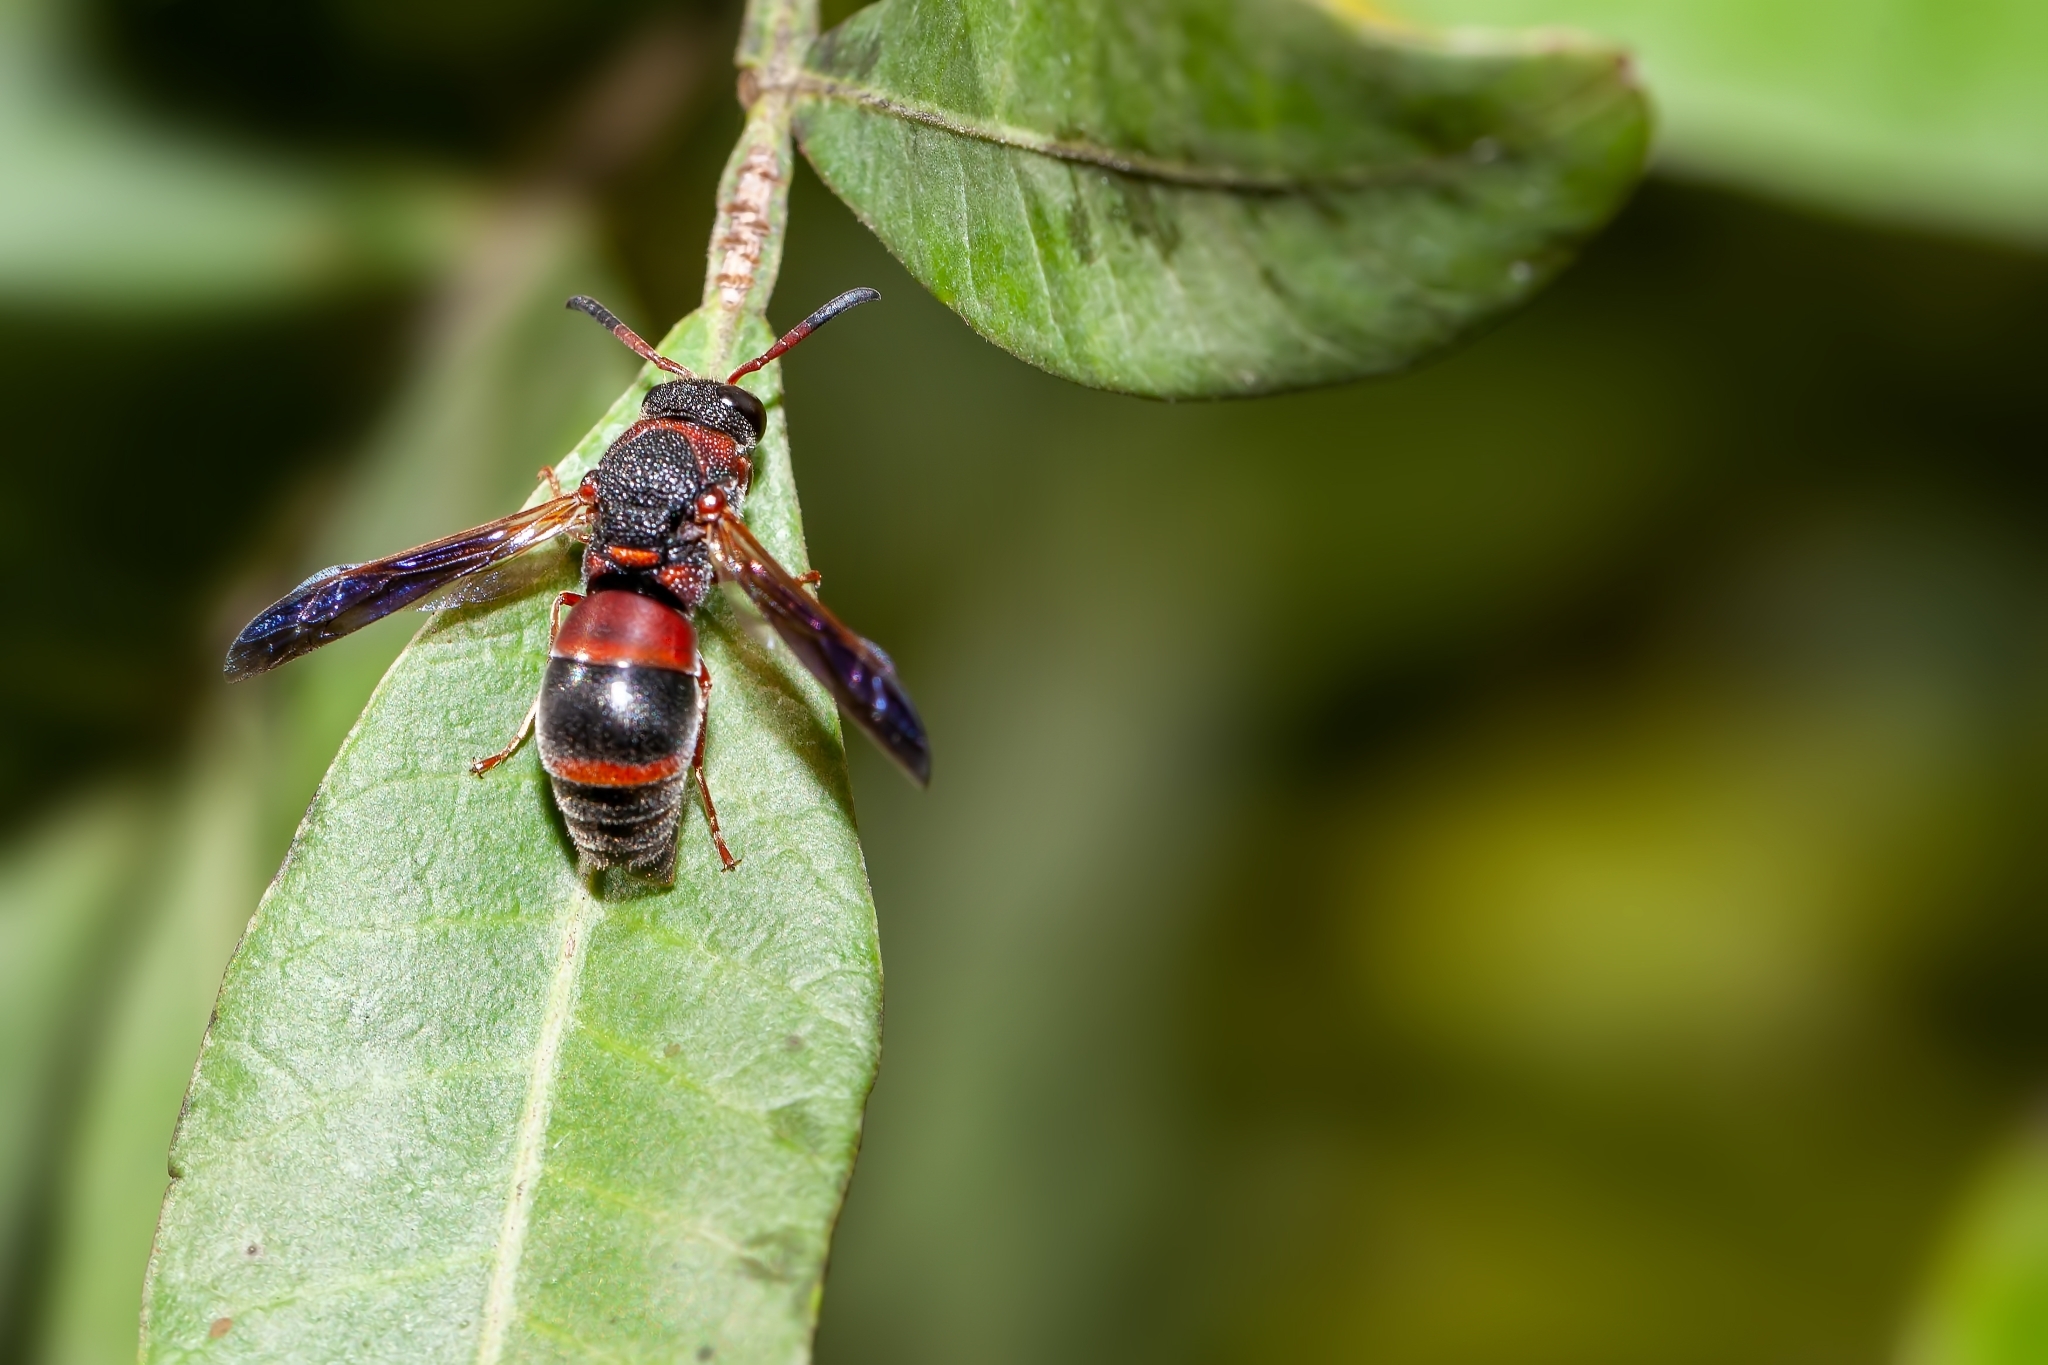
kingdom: Animalia
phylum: Arthropoda
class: Insecta
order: Hymenoptera
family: Eumenidae
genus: Pachodynerus
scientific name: Pachodynerus erynnis
